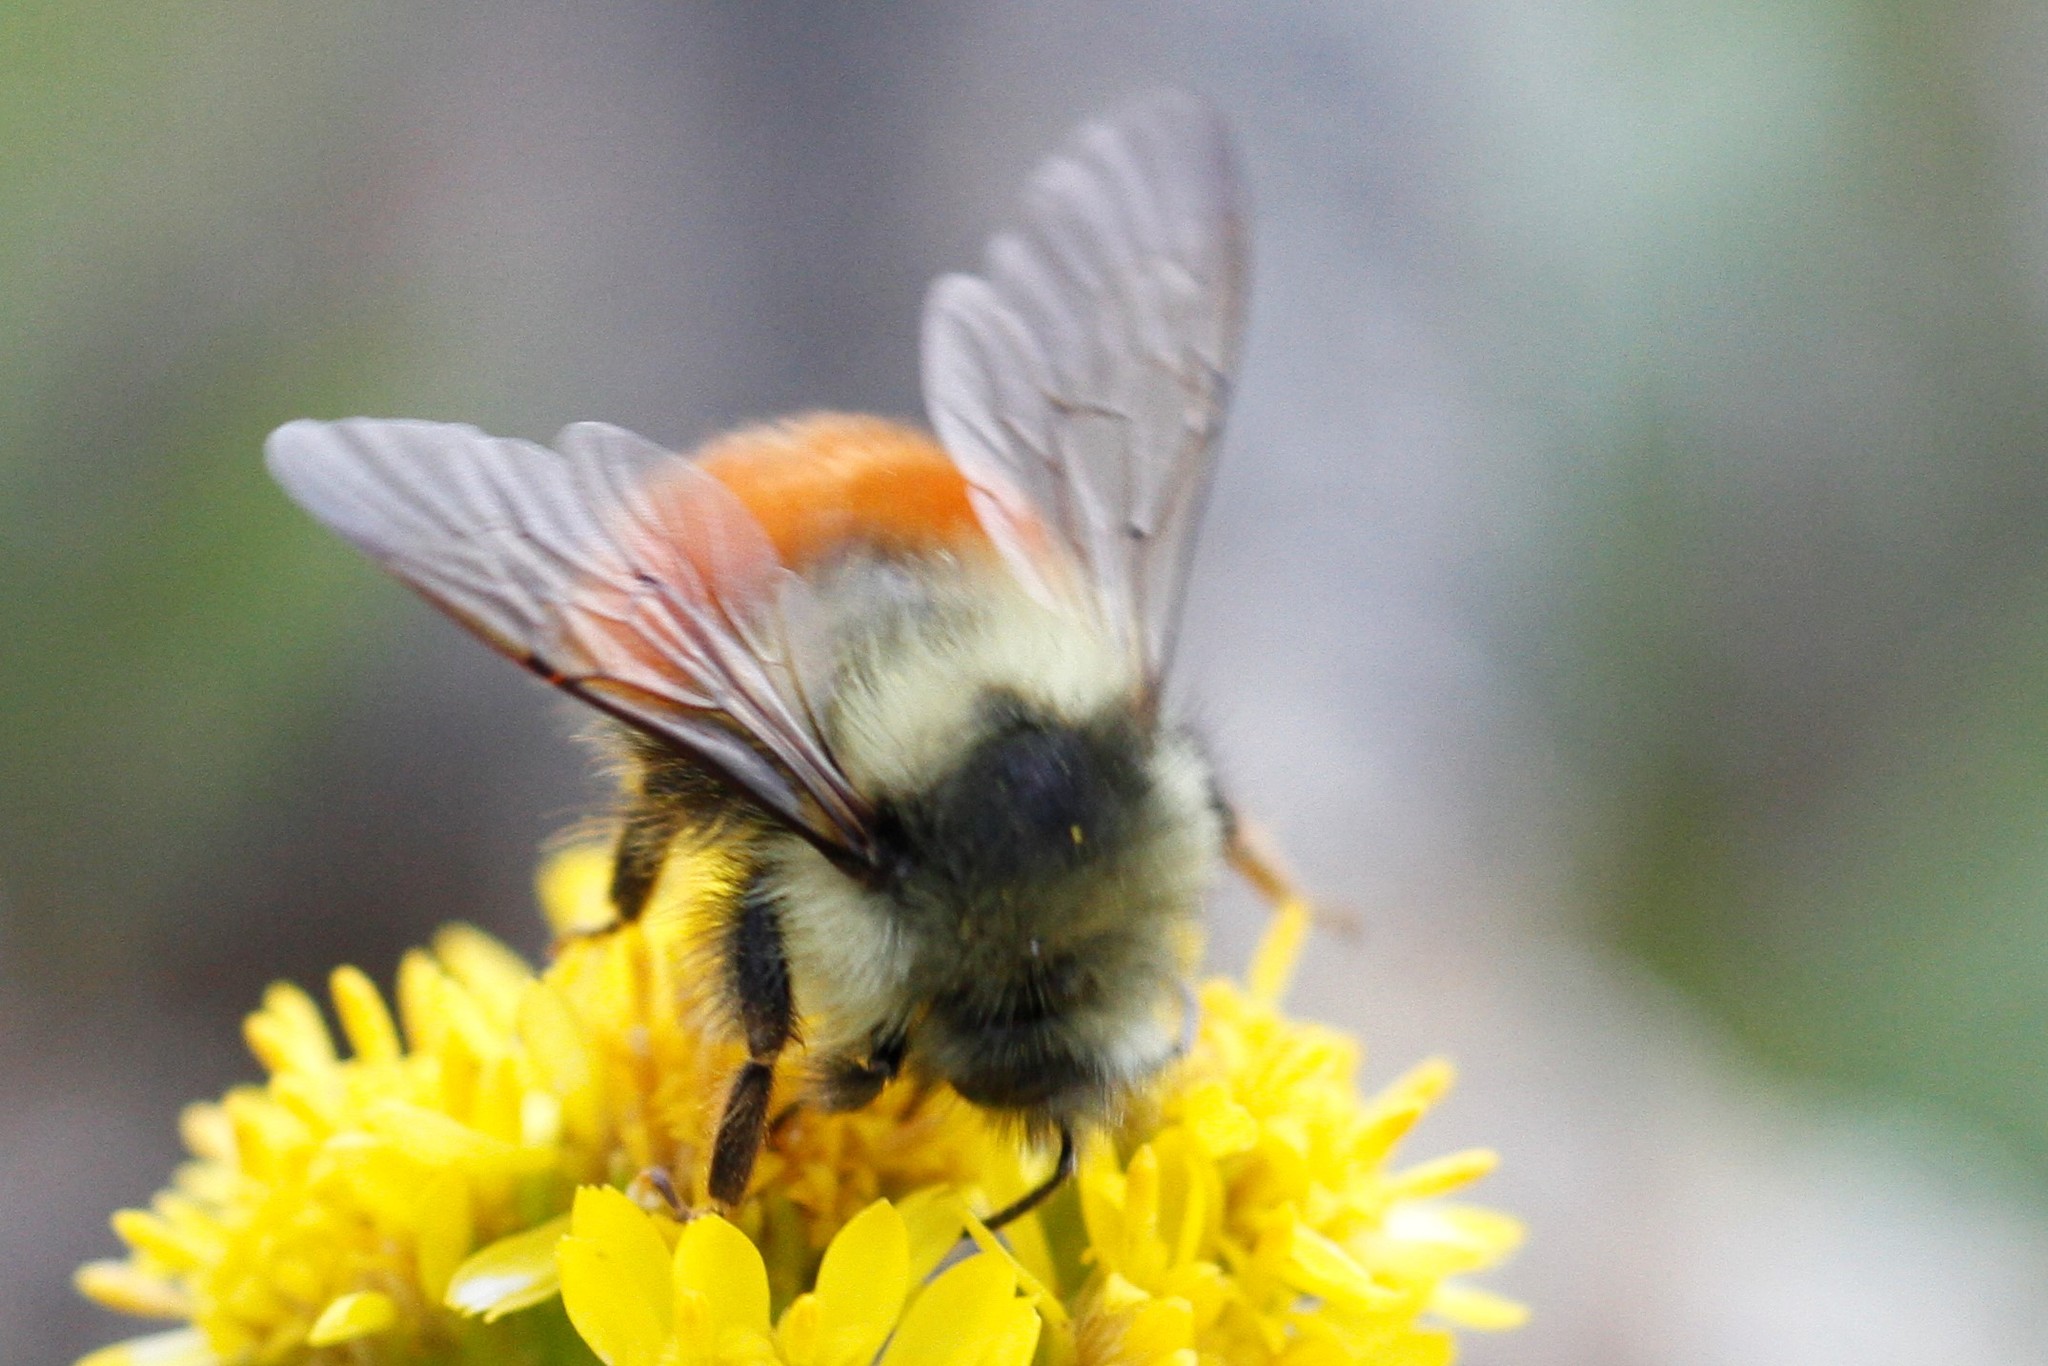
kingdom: Animalia
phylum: Arthropoda
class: Insecta
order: Hymenoptera
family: Apidae
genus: Bombus
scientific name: Bombus melanopygus
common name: Black tail bumble bee
